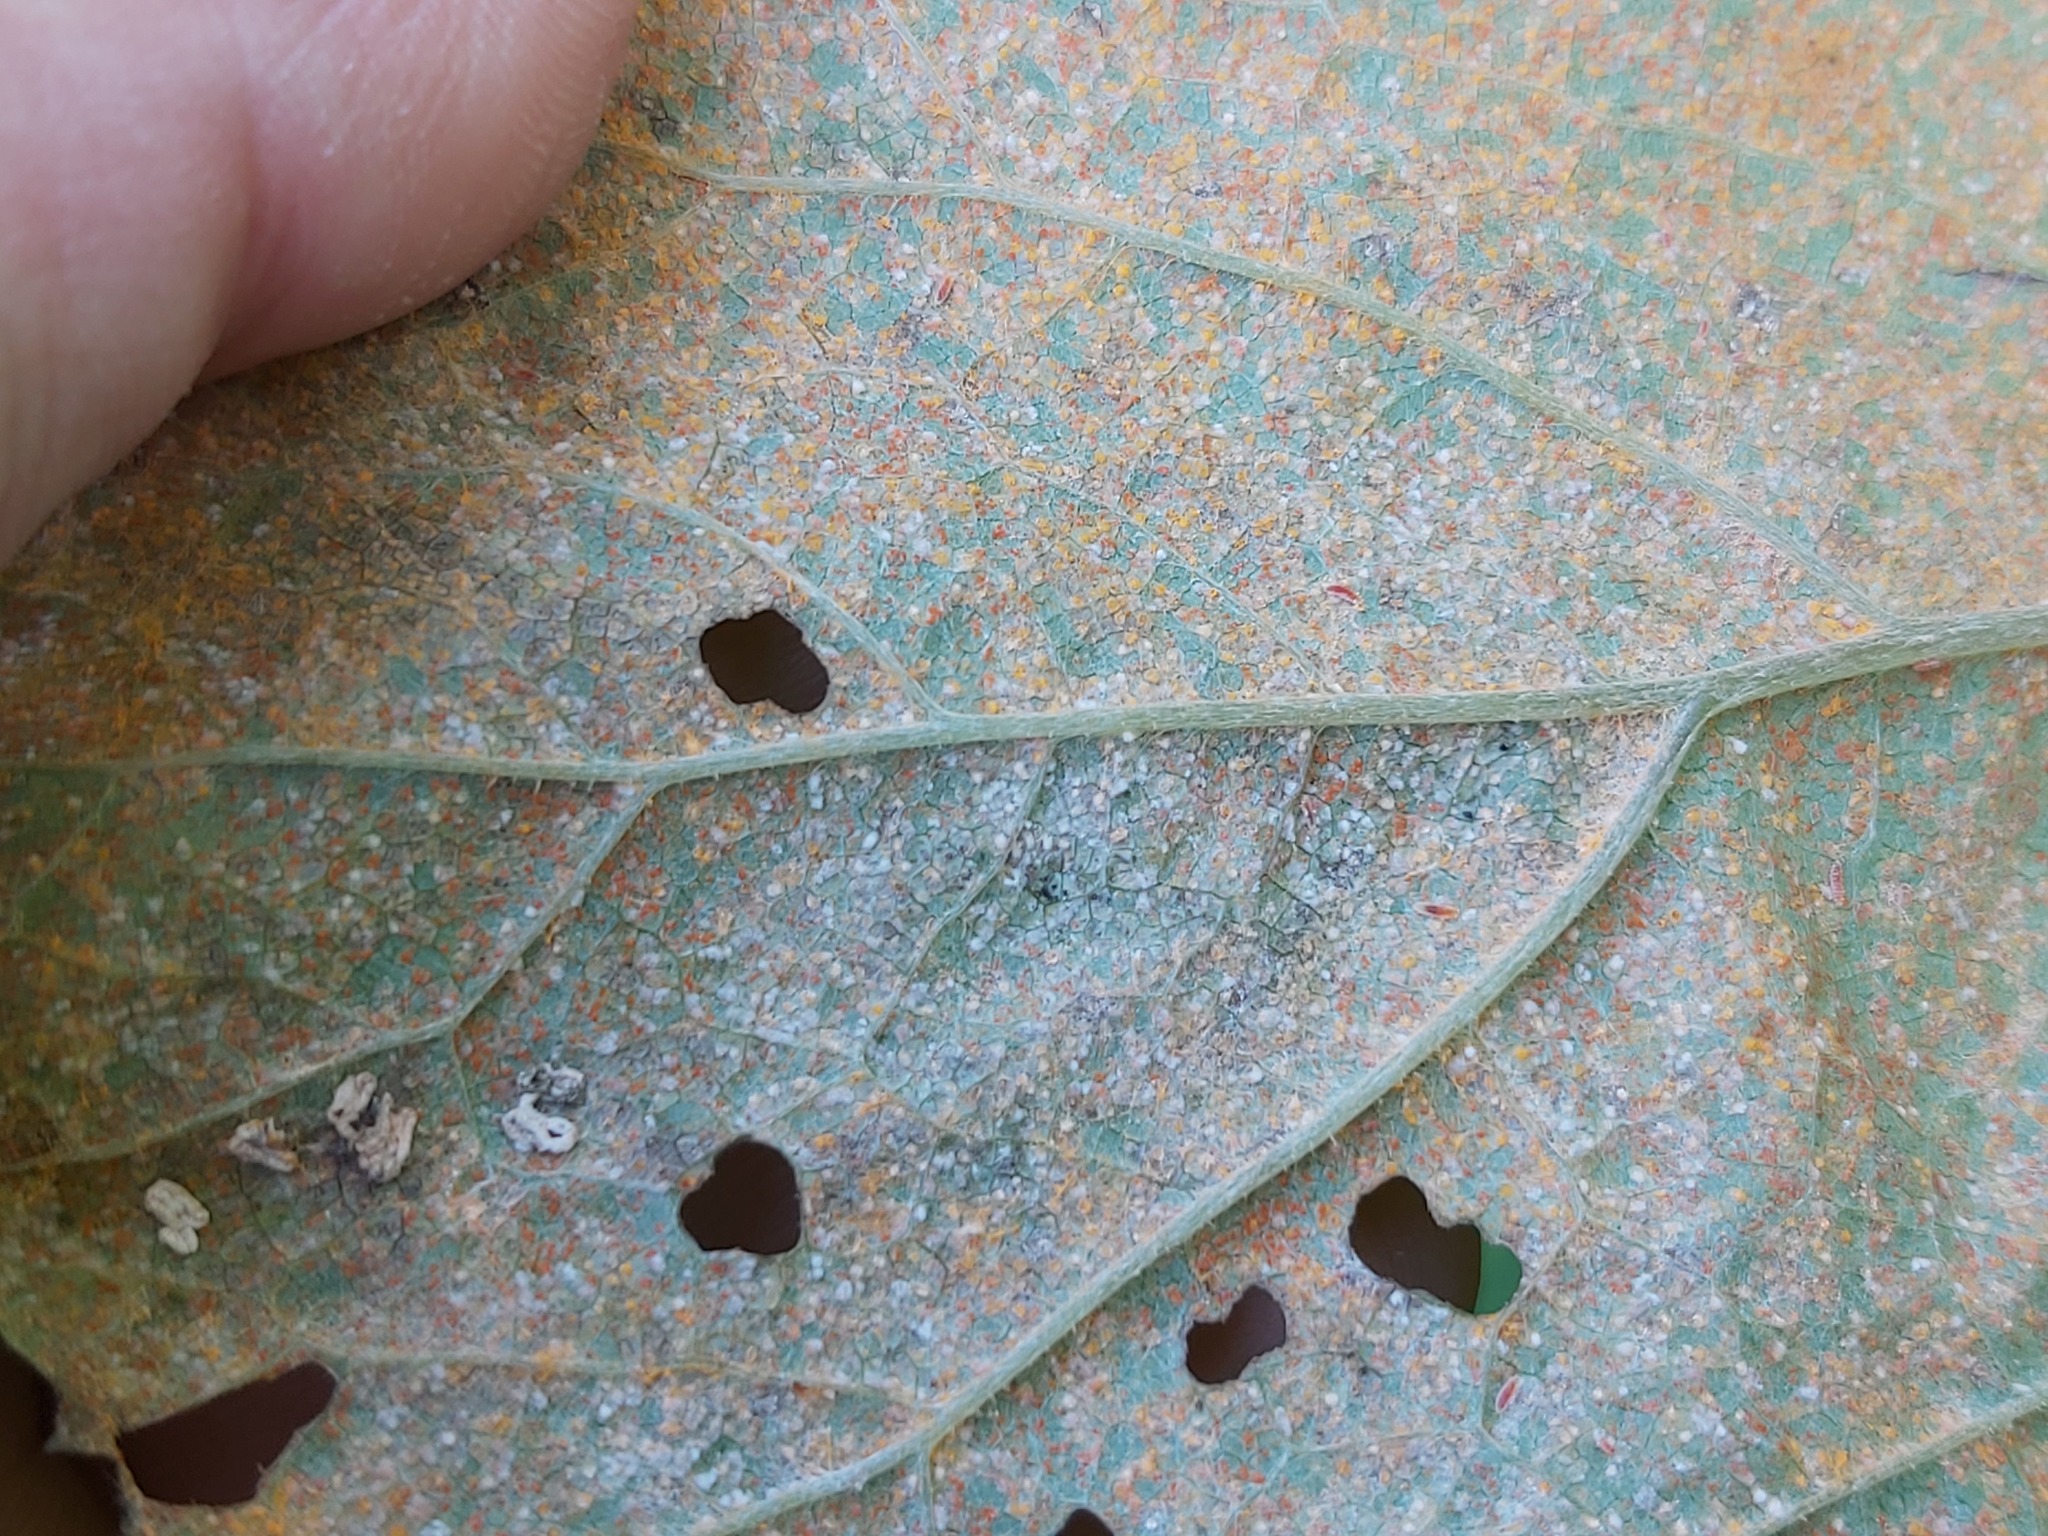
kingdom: Fungi
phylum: Basidiomycota
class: Pucciniomycetes
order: Pucciniales
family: Coleosporiaceae
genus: Coleosporium
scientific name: Coleosporium tussilaginis
